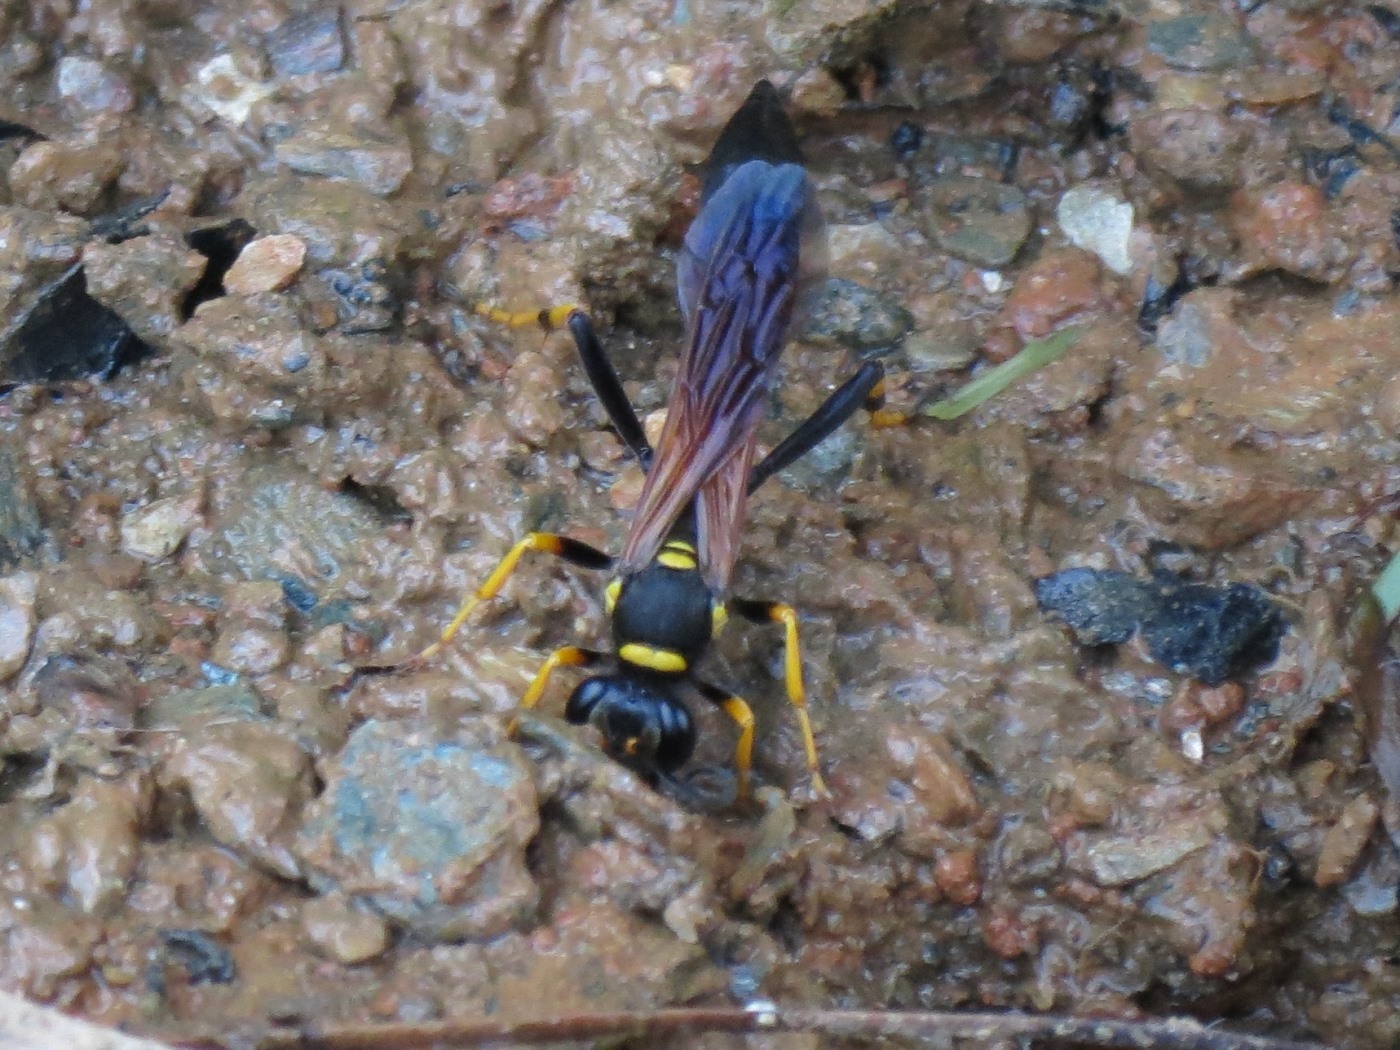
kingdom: Animalia
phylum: Arthropoda
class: Insecta
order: Hymenoptera
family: Sphecidae
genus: Sceliphron
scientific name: Sceliphron caementarium
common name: Mud dauber
